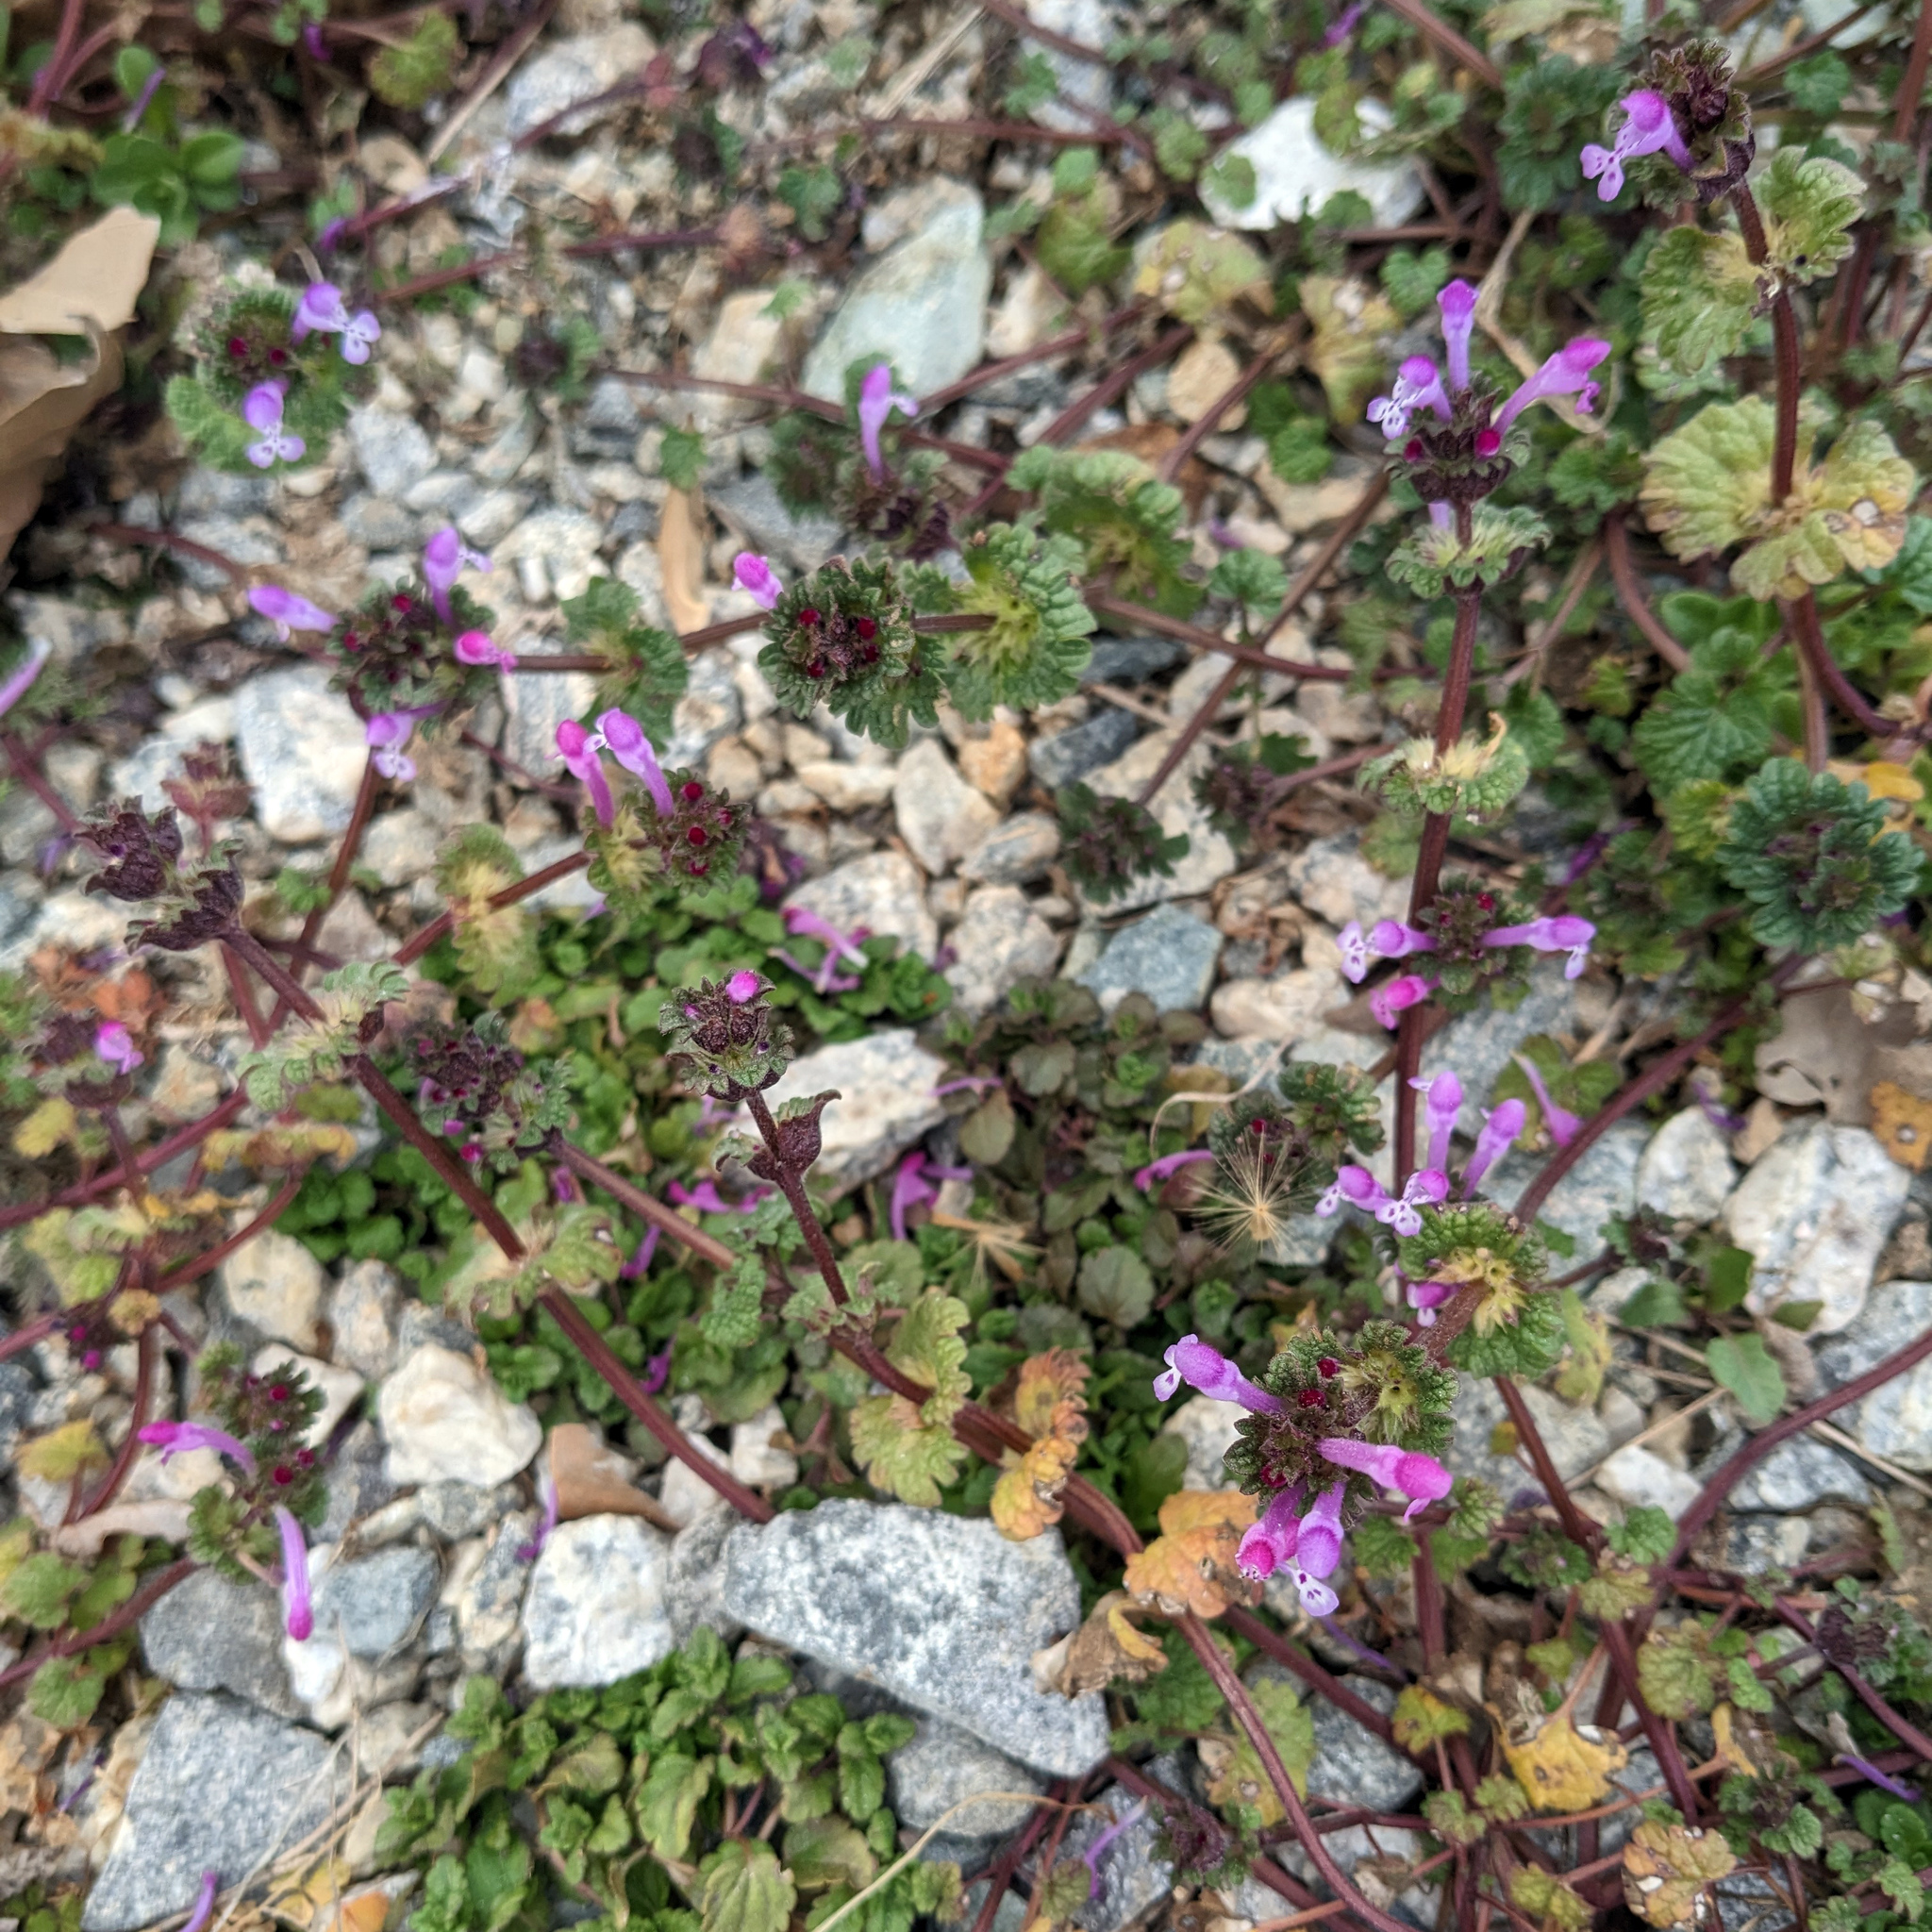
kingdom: Plantae
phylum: Tracheophyta
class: Magnoliopsida
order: Lamiales
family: Lamiaceae
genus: Lamium
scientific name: Lamium amplexicaule
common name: Henbit dead-nettle
